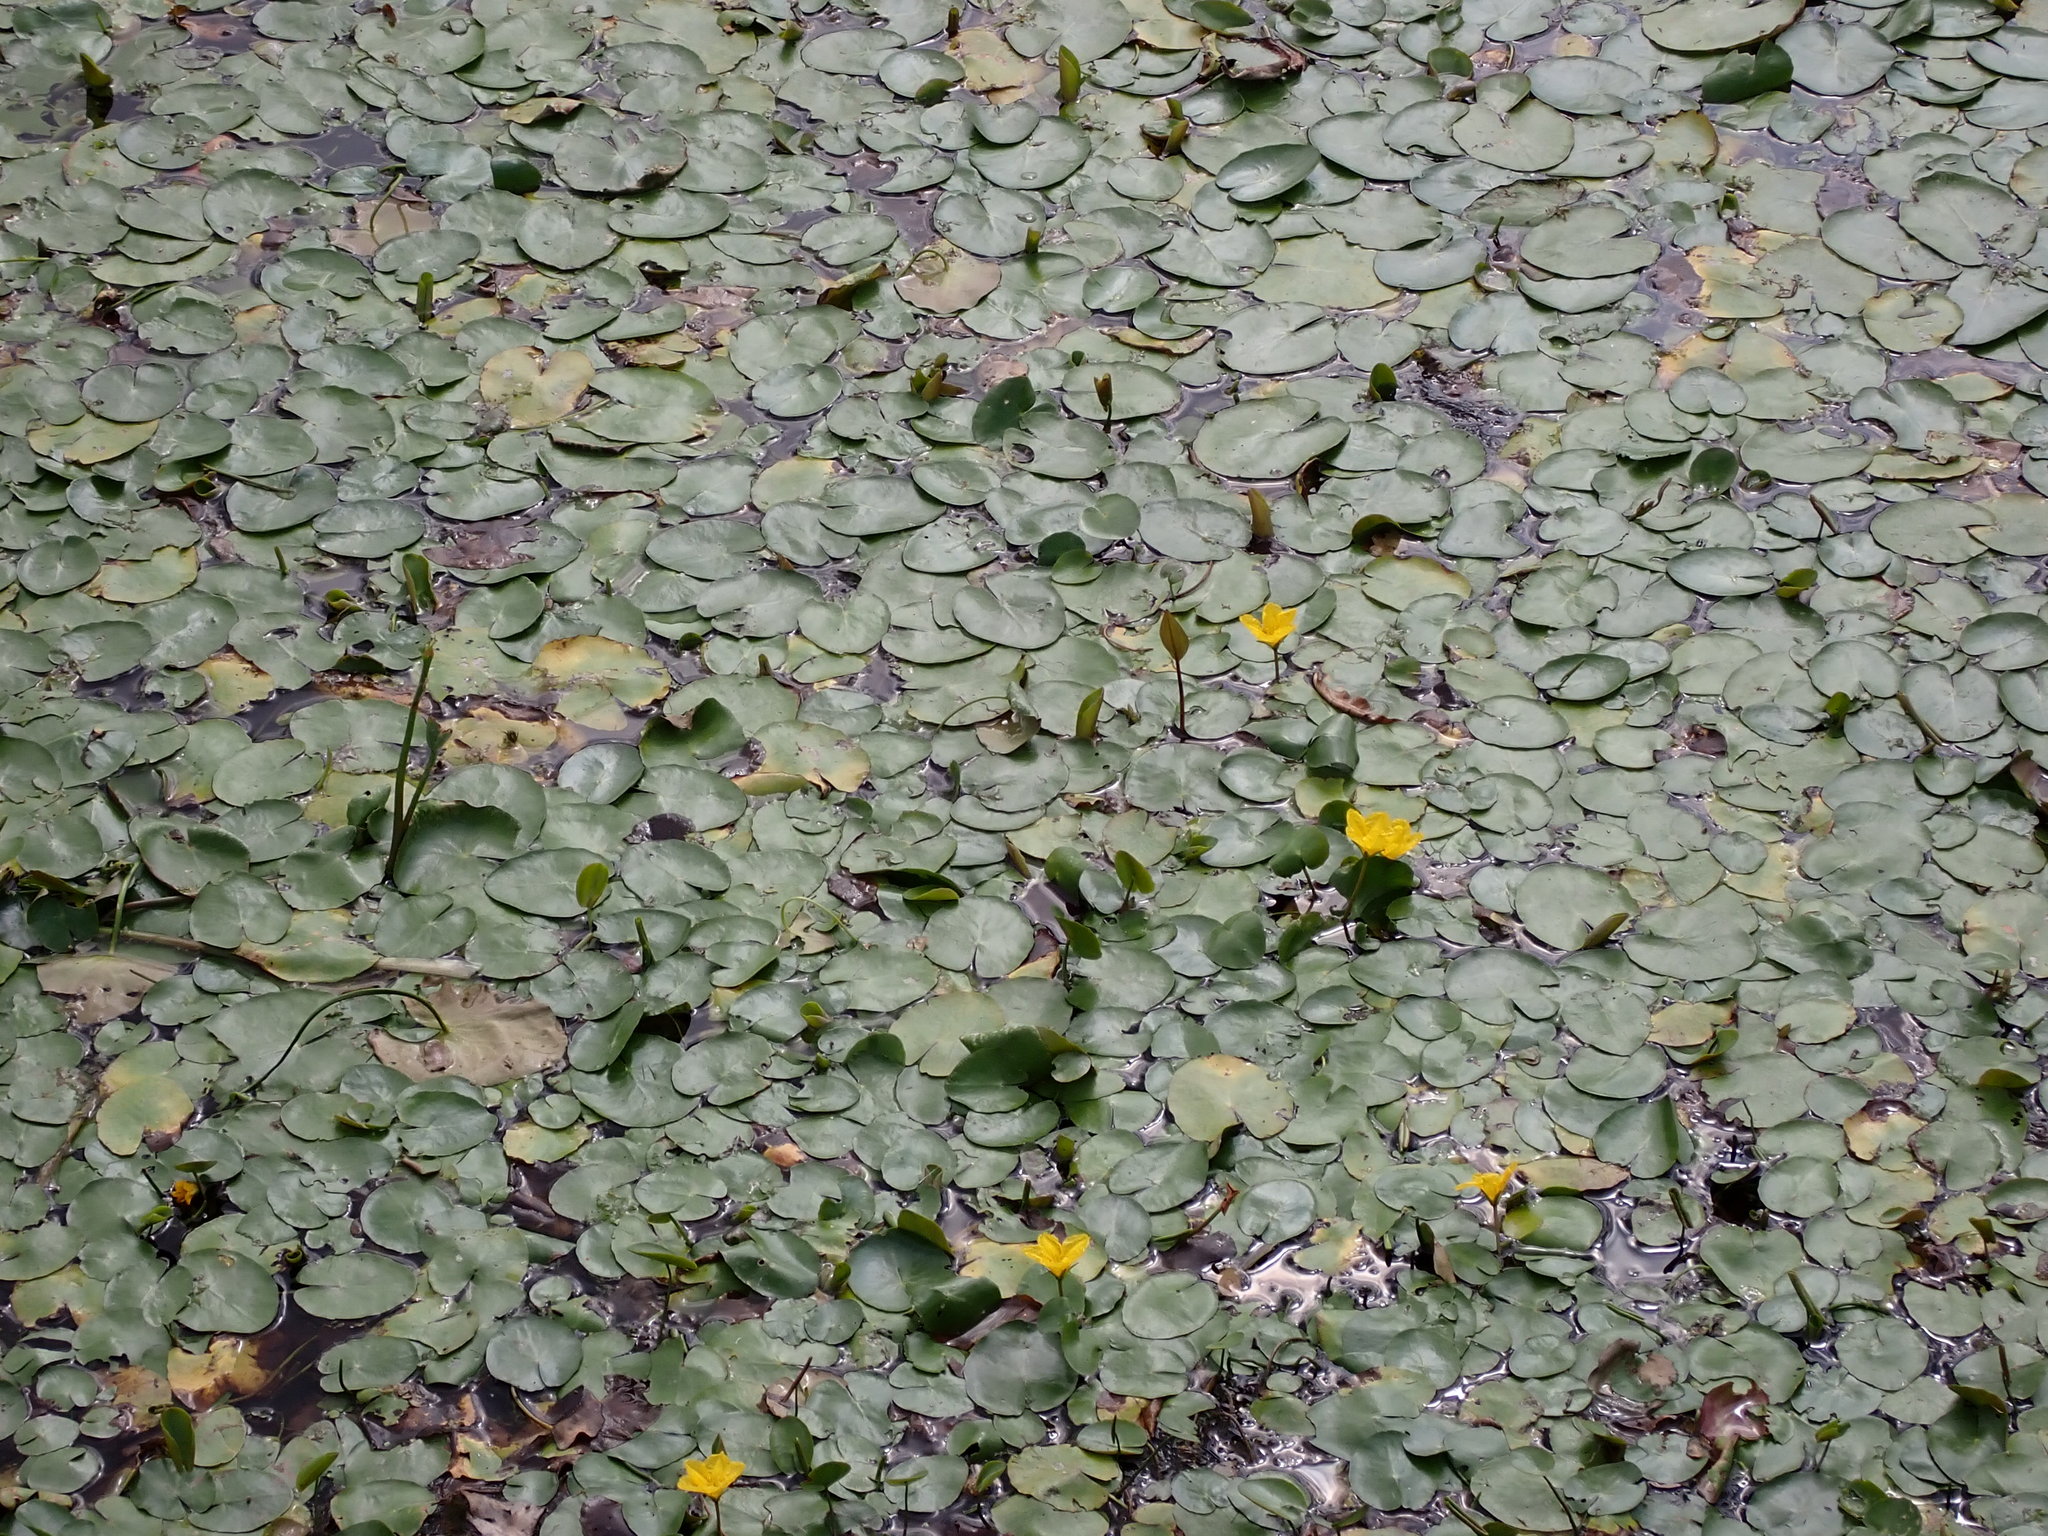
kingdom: Plantae
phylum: Tracheophyta
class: Magnoliopsida
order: Asterales
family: Menyanthaceae
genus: Nymphoides
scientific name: Nymphoides peltata
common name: Fringed water-lily
